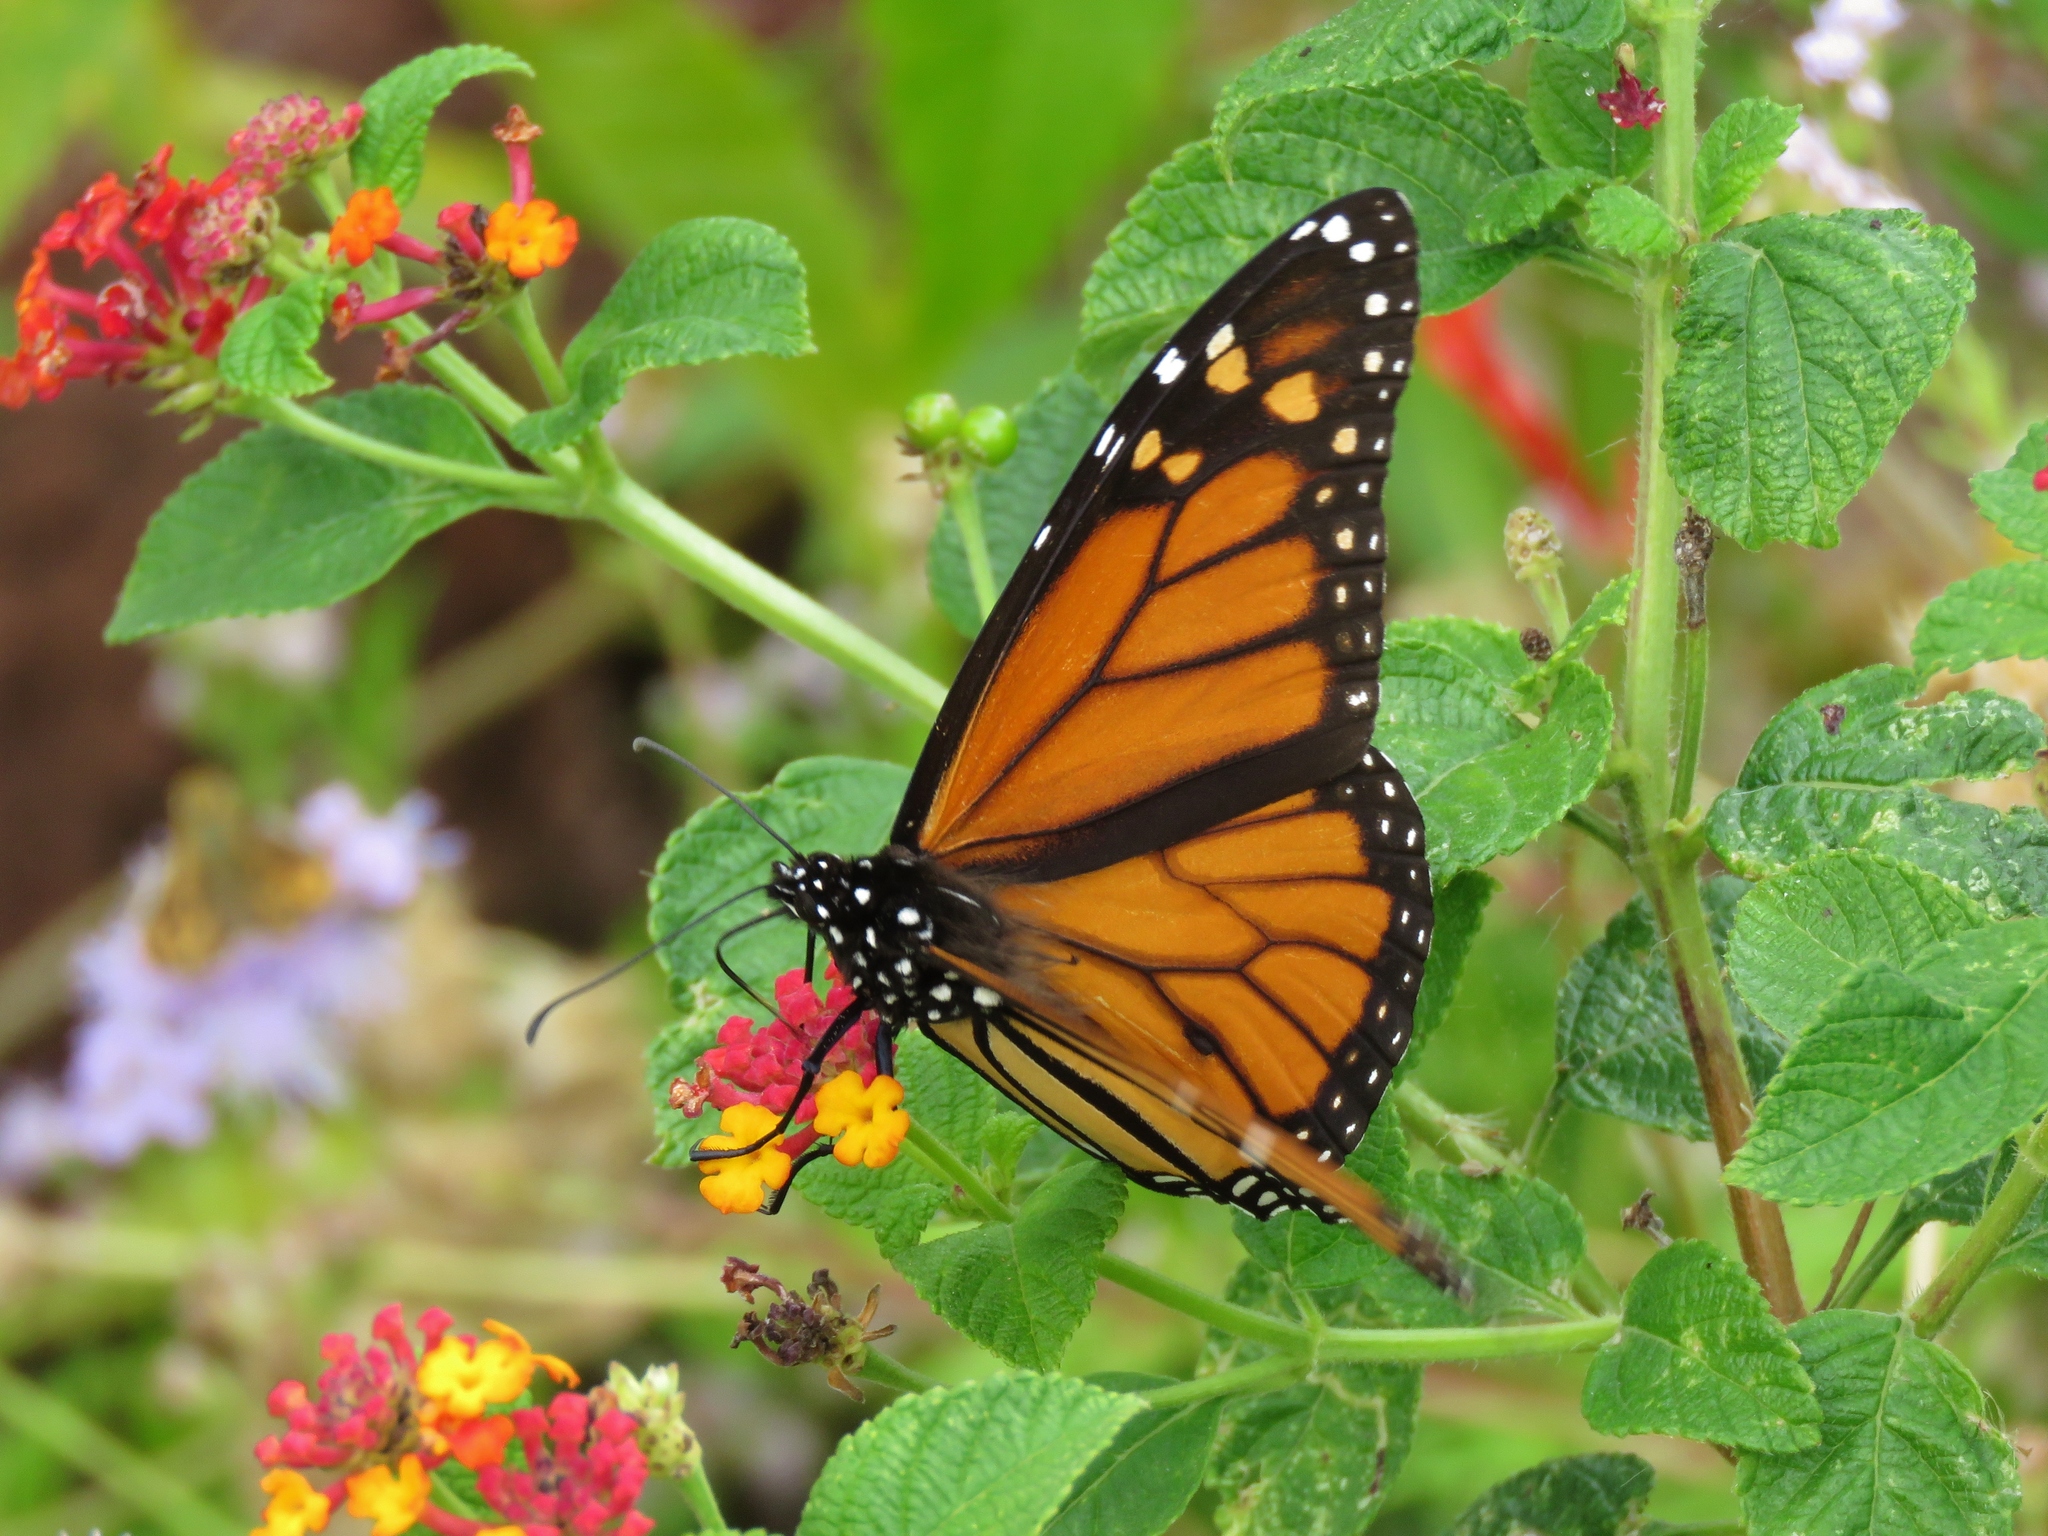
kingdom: Animalia
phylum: Arthropoda
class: Insecta
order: Lepidoptera
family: Nymphalidae
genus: Danaus
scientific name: Danaus plexippus
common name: Monarch
